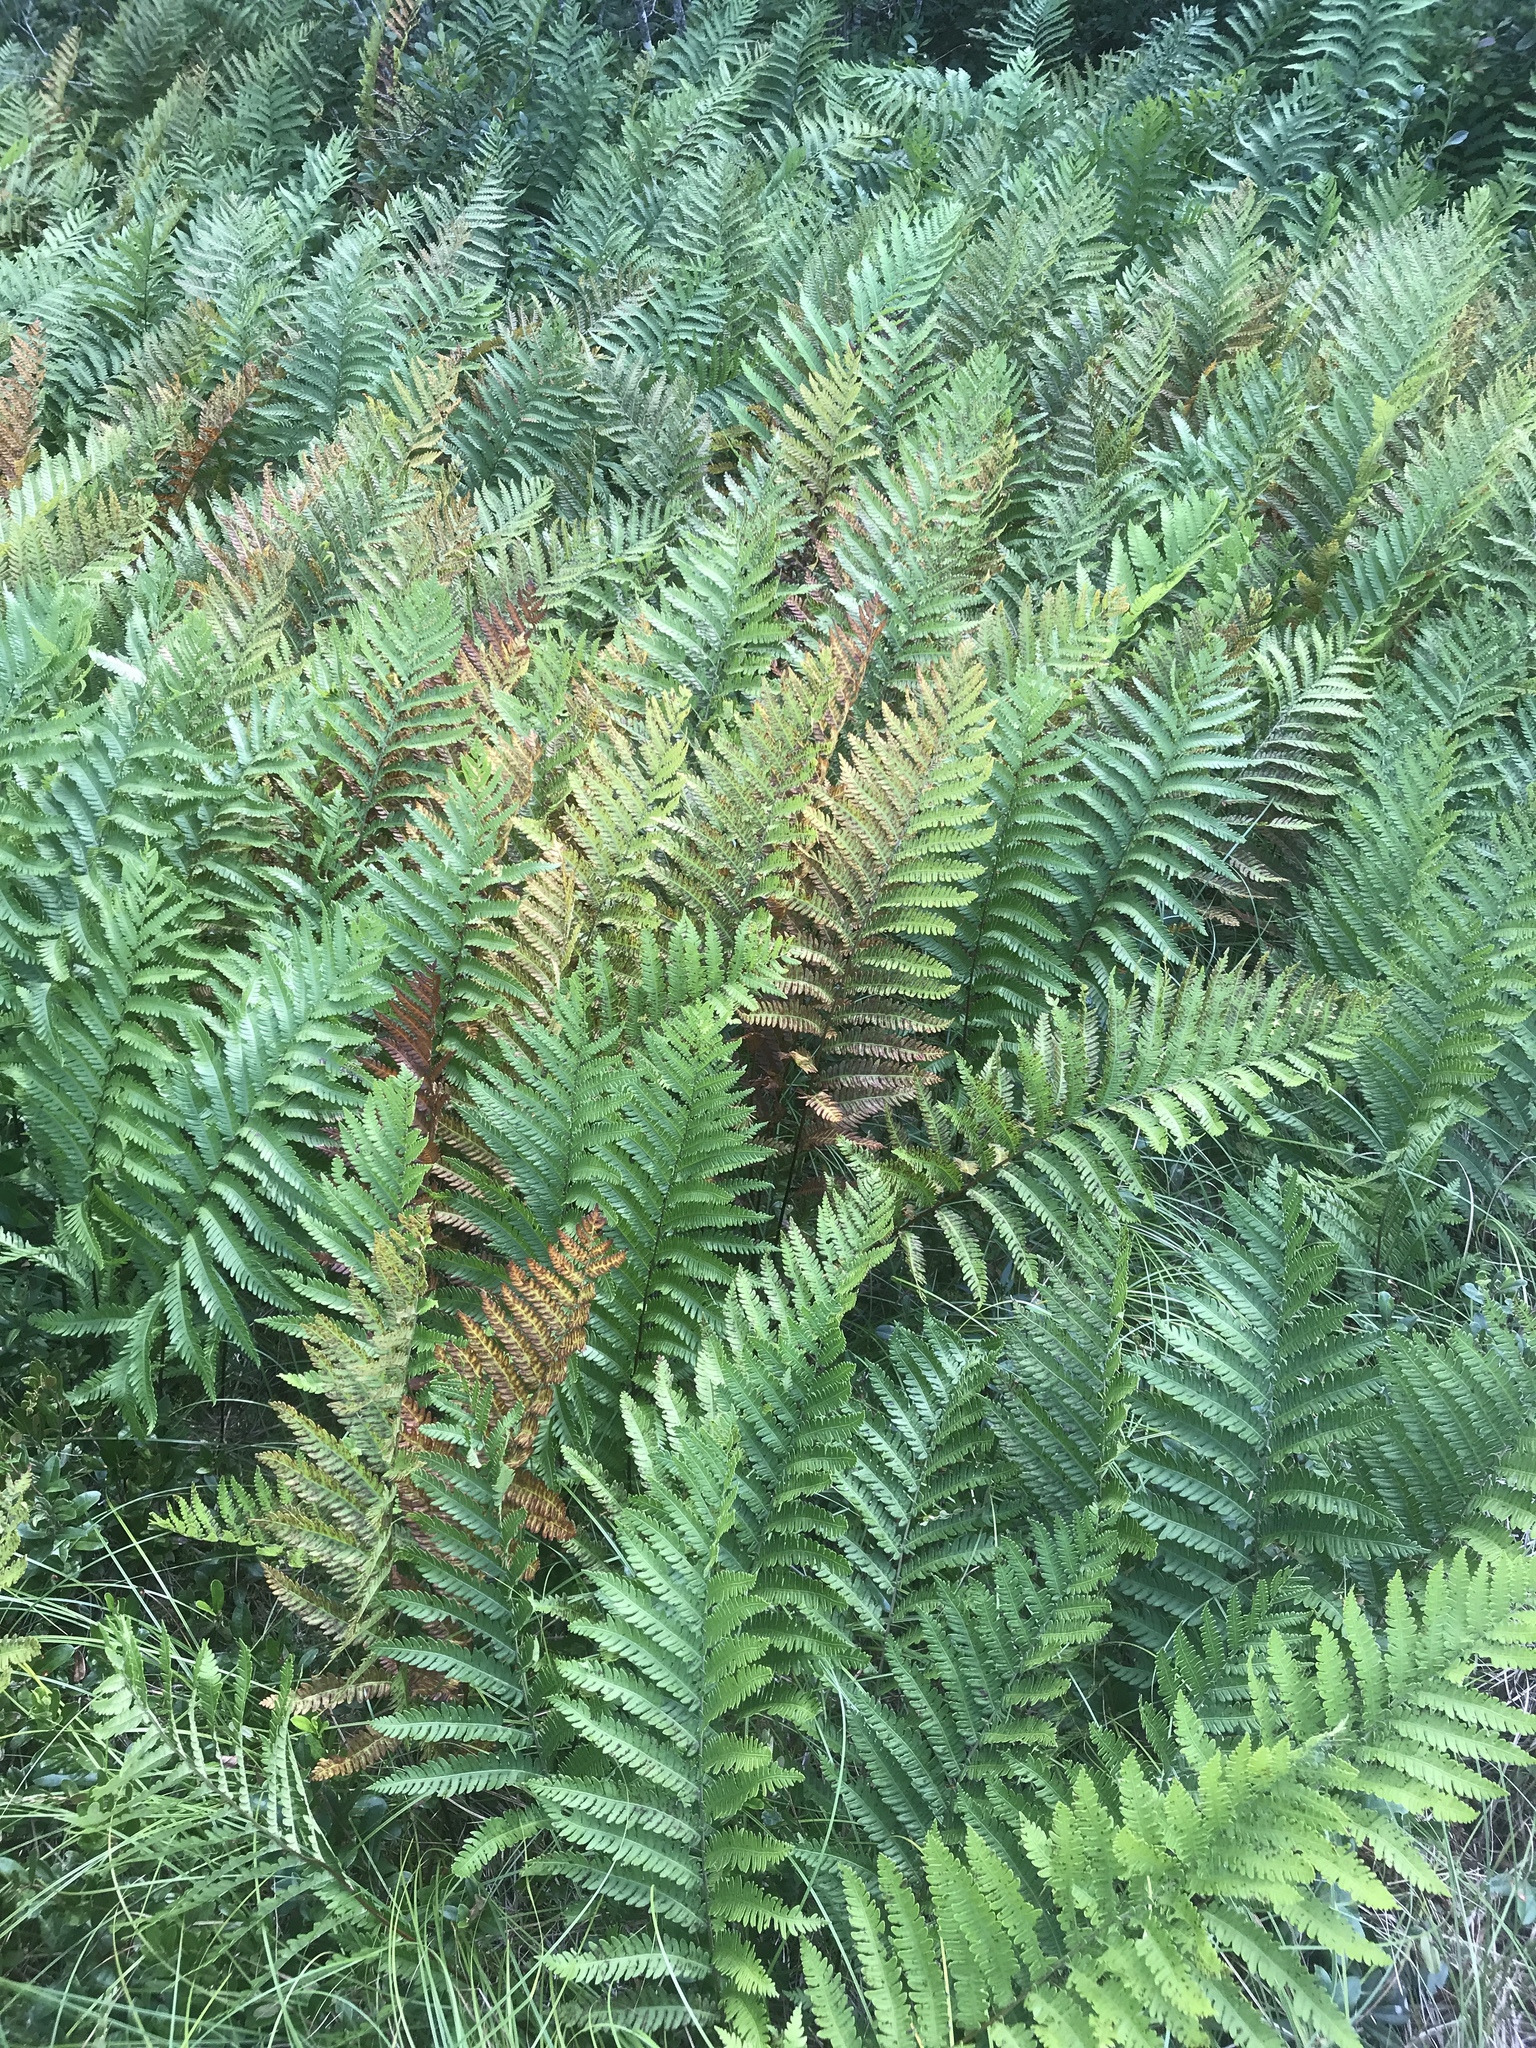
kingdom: Plantae
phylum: Tracheophyta
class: Polypodiopsida
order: Polypodiales
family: Blechnaceae
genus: Anchistea
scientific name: Anchistea virginica
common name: Virginia chain fern
